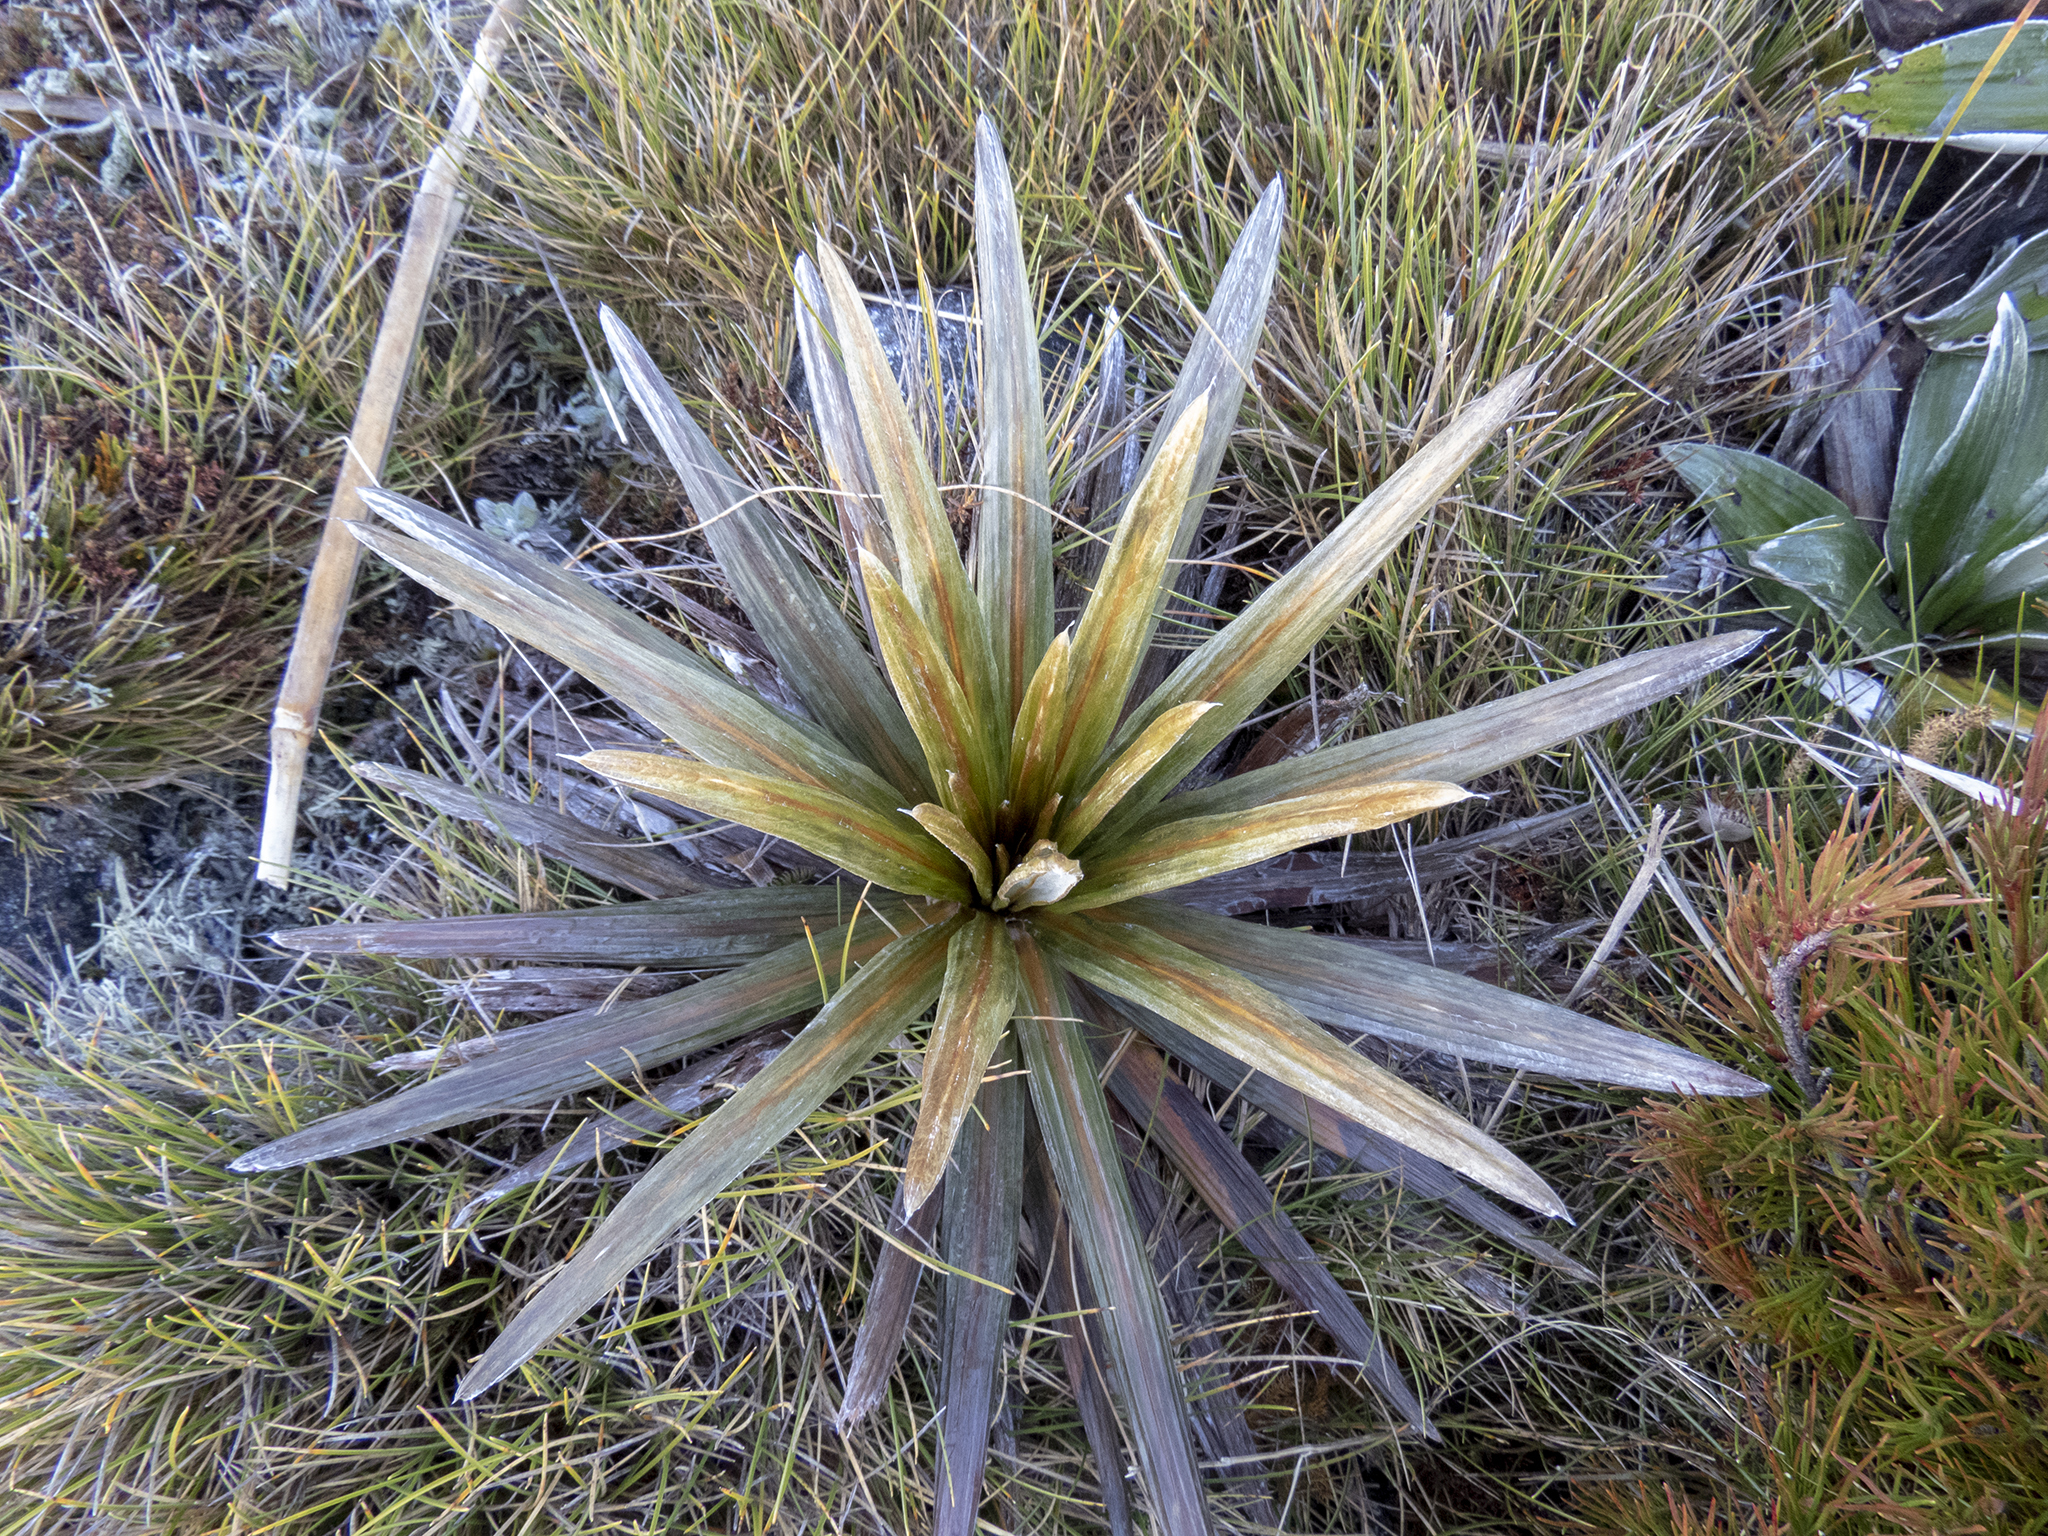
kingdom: Plantae
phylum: Tracheophyta
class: Magnoliopsida
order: Asterales
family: Asteraceae
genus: Celmisia
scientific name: Celmisia armstrongii
